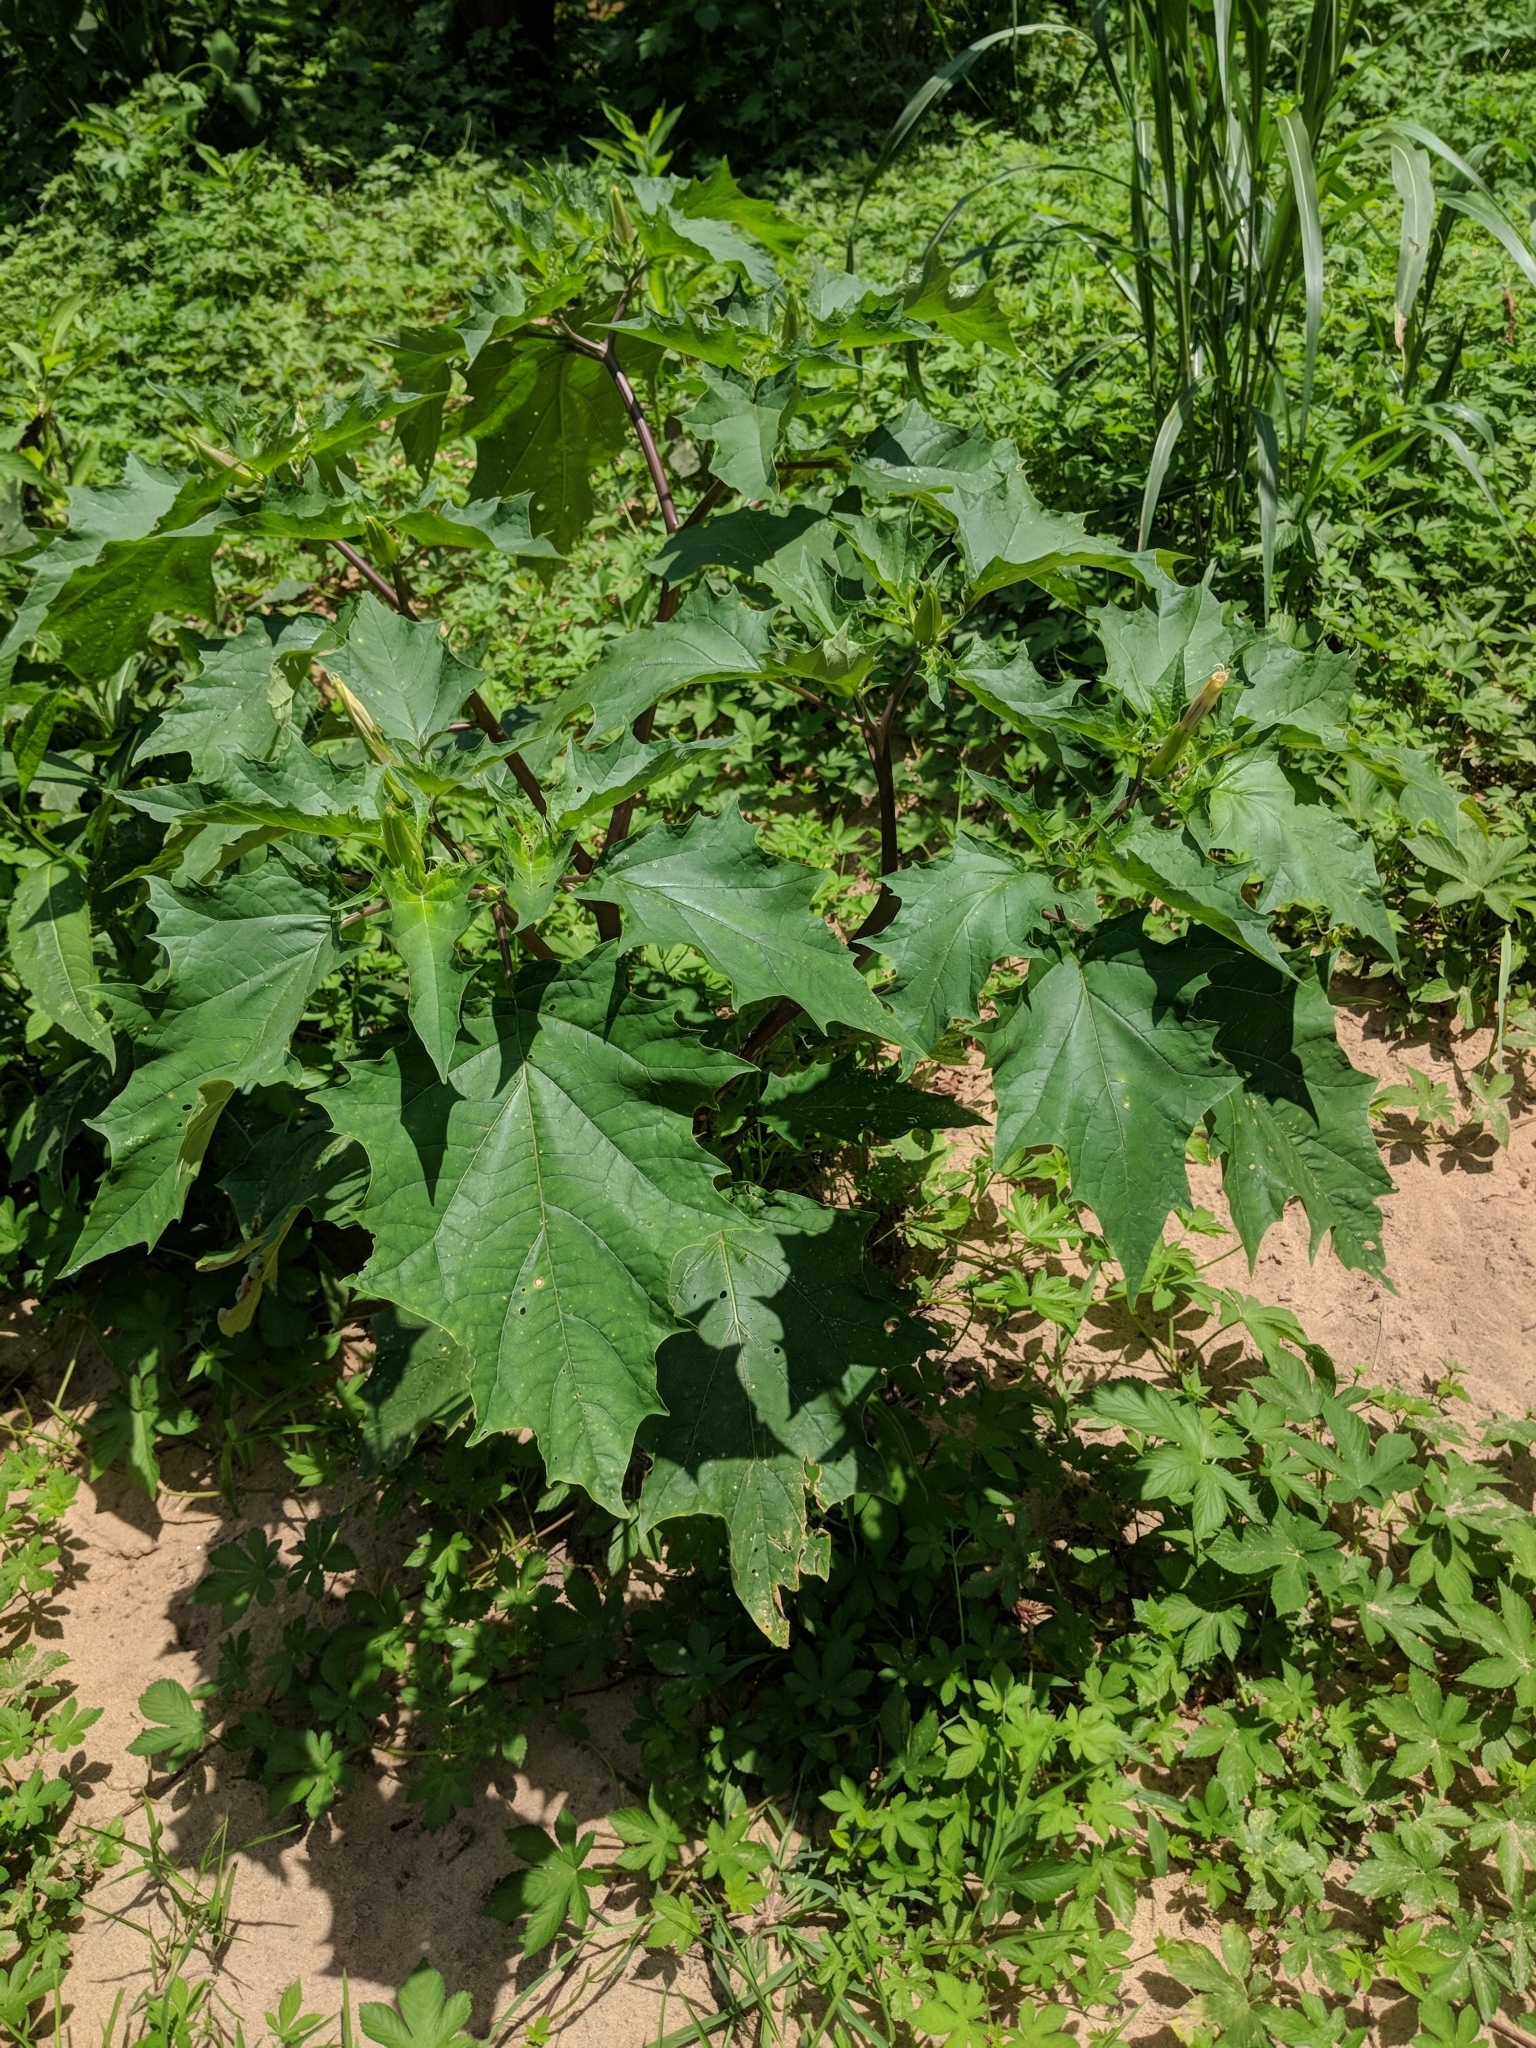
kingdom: Plantae
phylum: Tracheophyta
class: Magnoliopsida
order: Solanales
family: Solanaceae
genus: Datura
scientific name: Datura stramonium
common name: Thorn-apple
